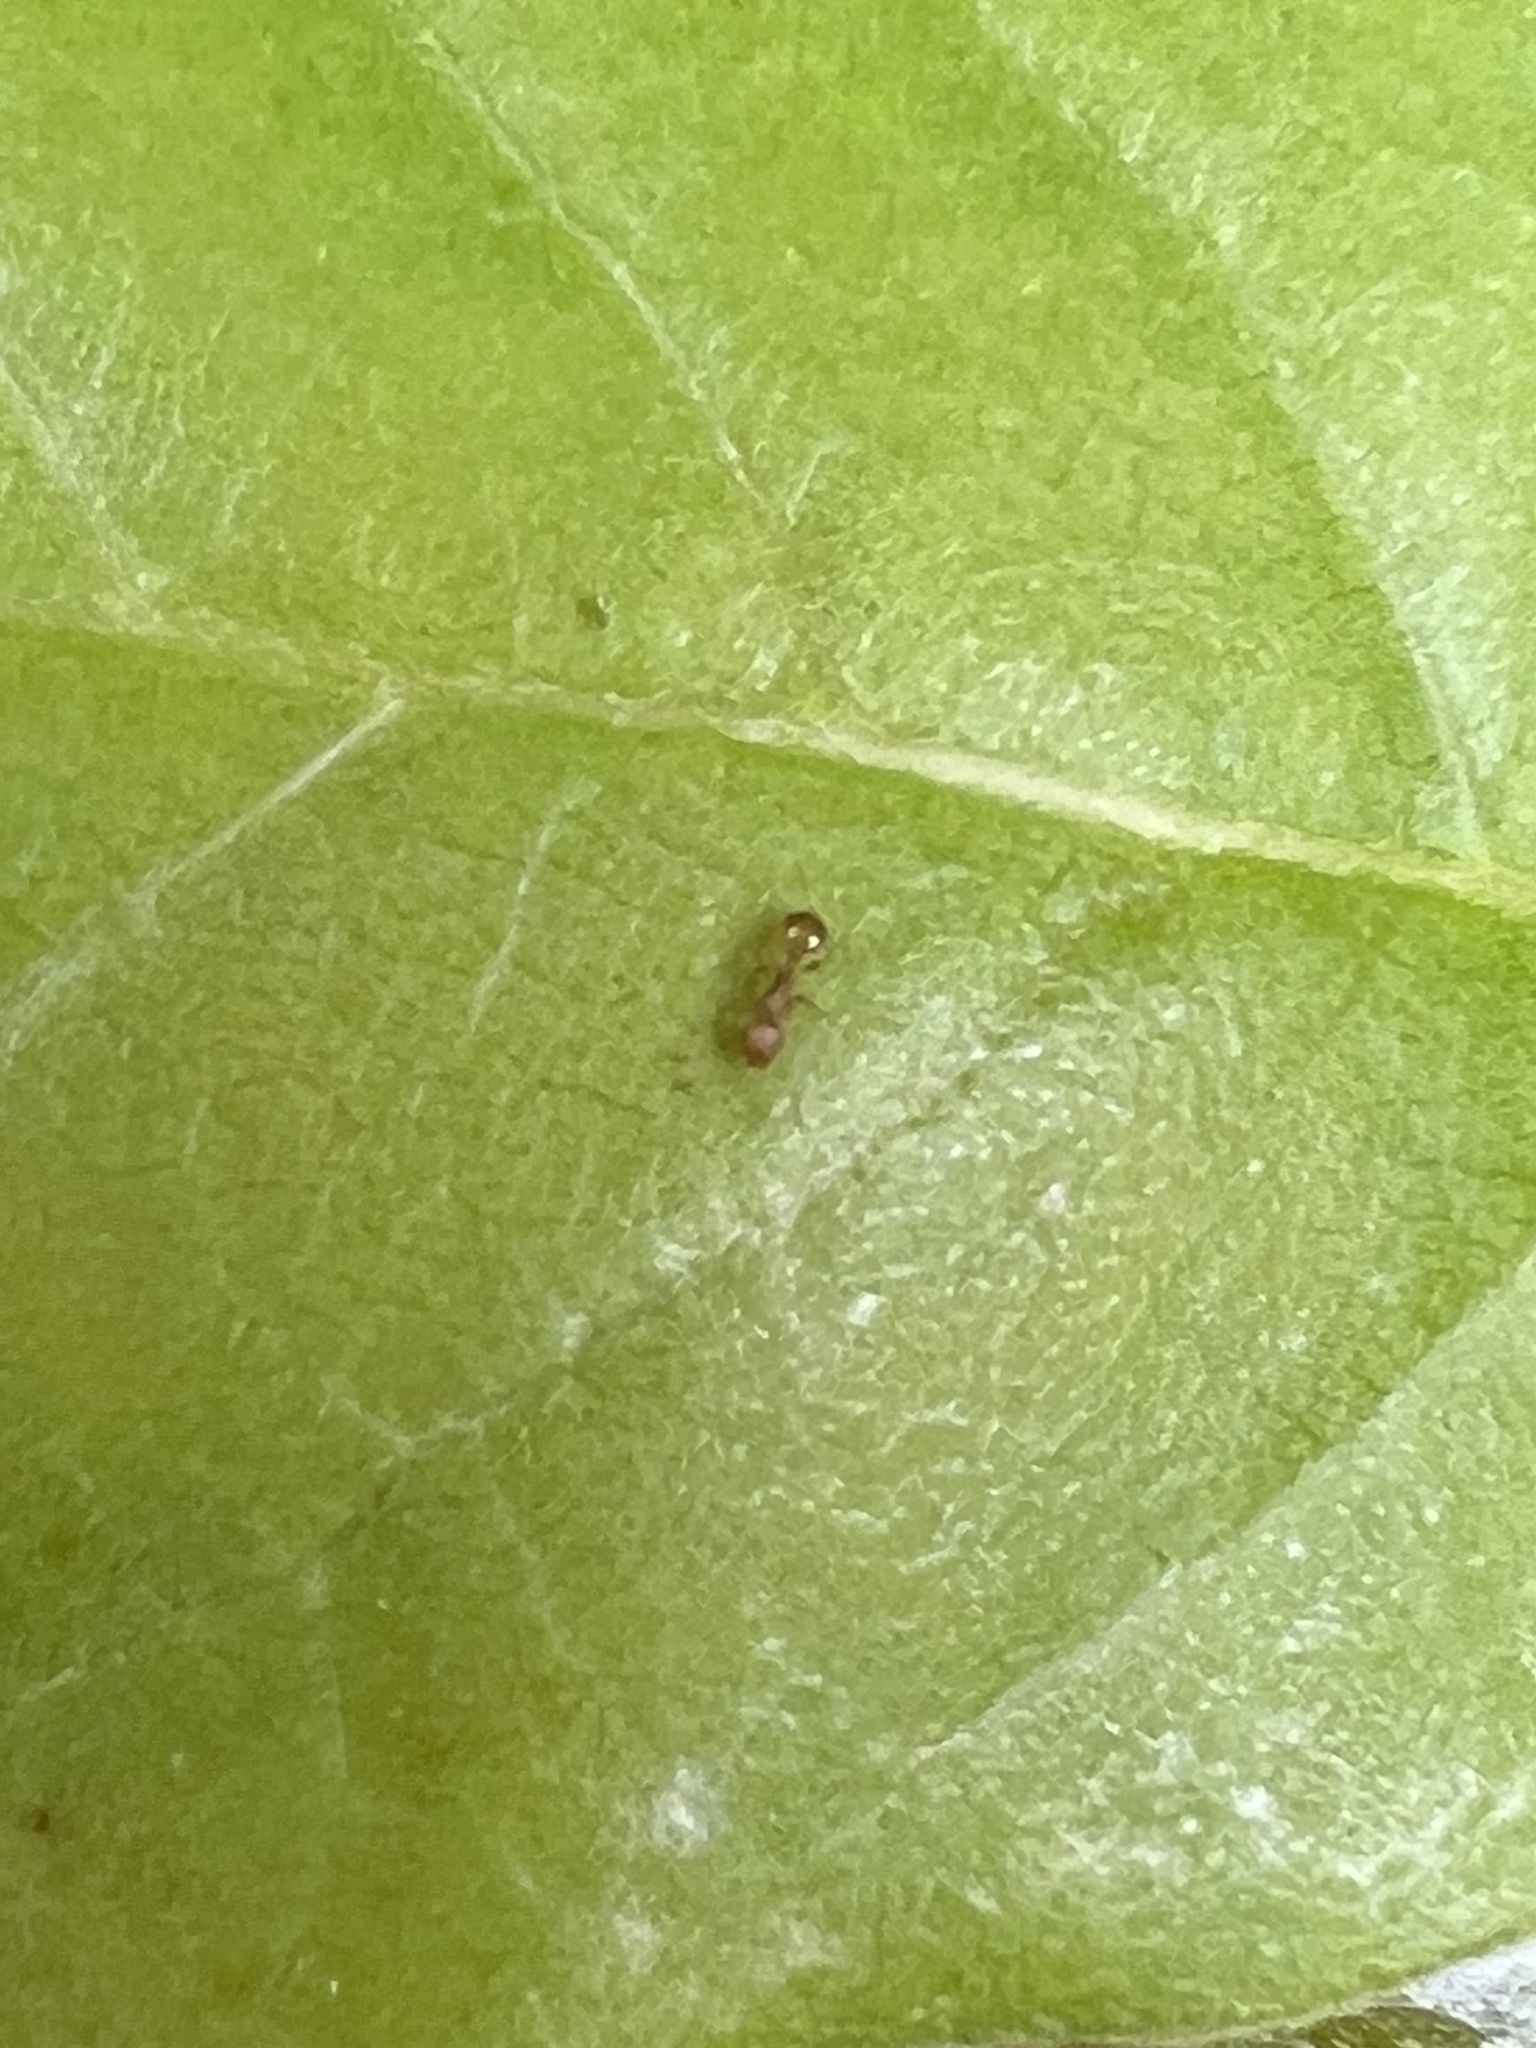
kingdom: Animalia
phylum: Arthropoda
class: Insecta
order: Hymenoptera
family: Formicidae
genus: Temnothorax
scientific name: Temnothorax curvispinosus
